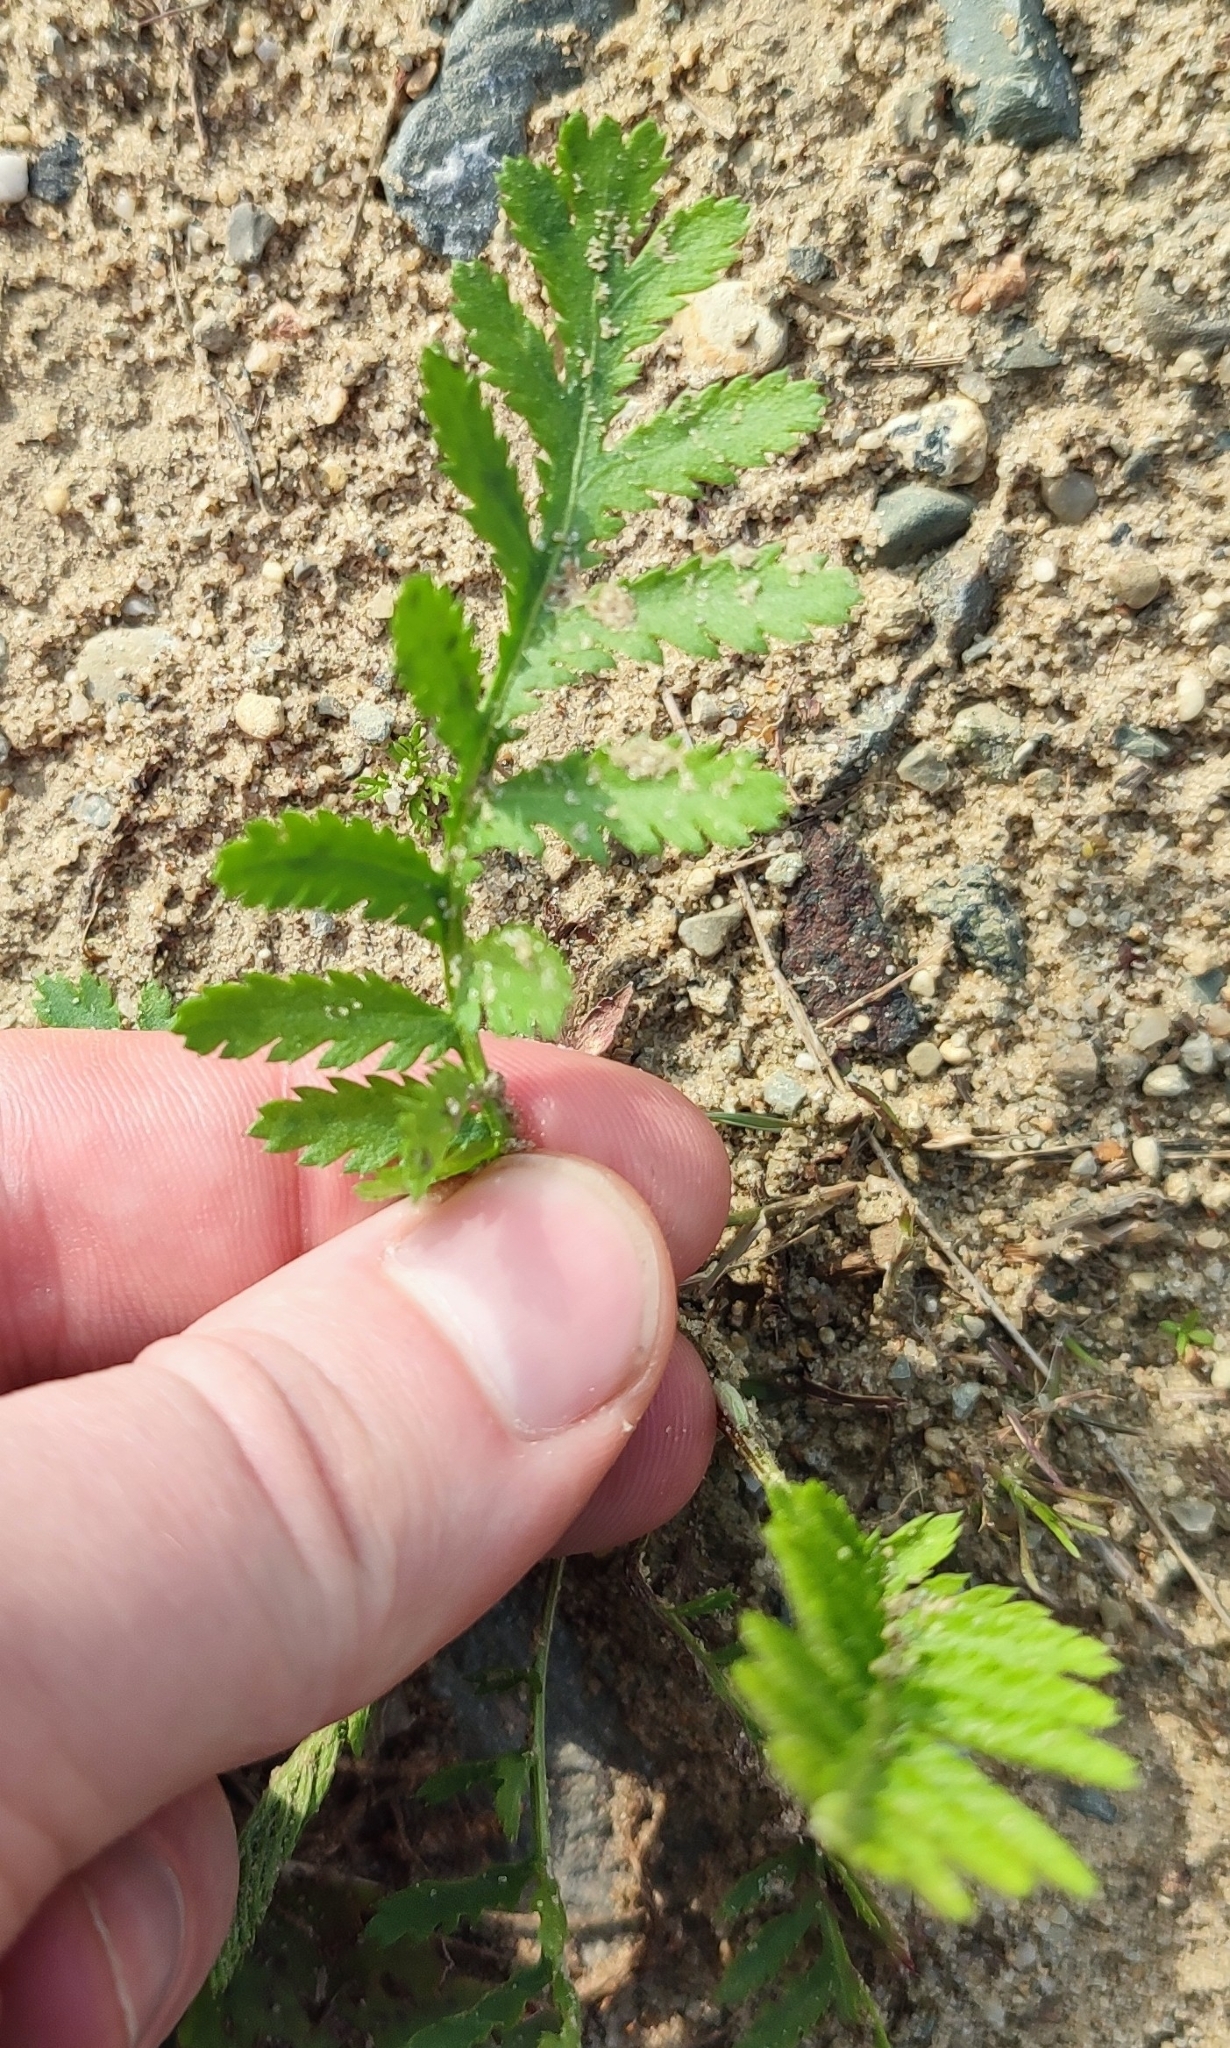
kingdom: Plantae
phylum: Tracheophyta
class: Magnoliopsida
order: Asterales
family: Asteraceae
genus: Tanacetum
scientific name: Tanacetum vulgare
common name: Common tansy
